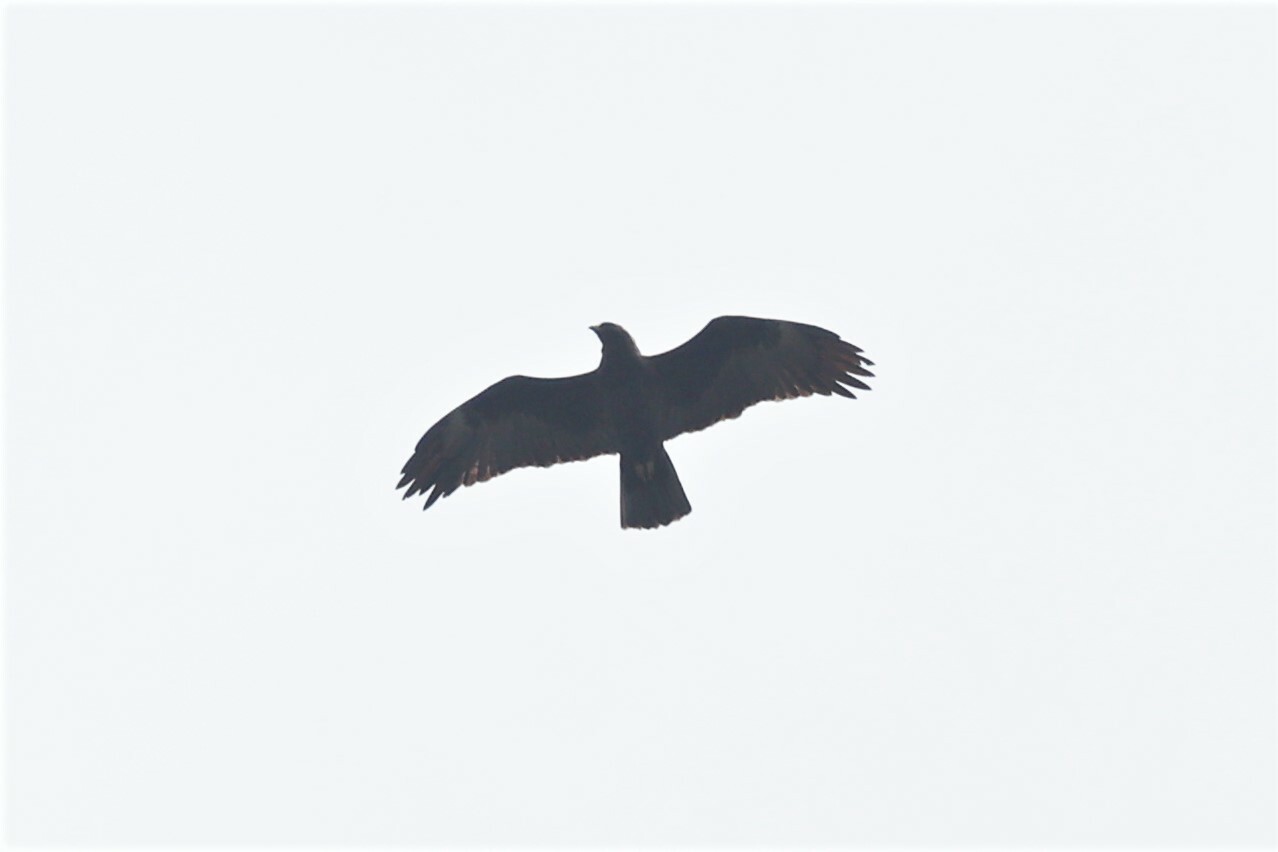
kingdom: Animalia
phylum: Chordata
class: Aves
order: Accipitriformes
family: Accipitridae
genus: Hieraaetus
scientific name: Hieraaetus wahlbergi
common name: Wahlberg's eagle
